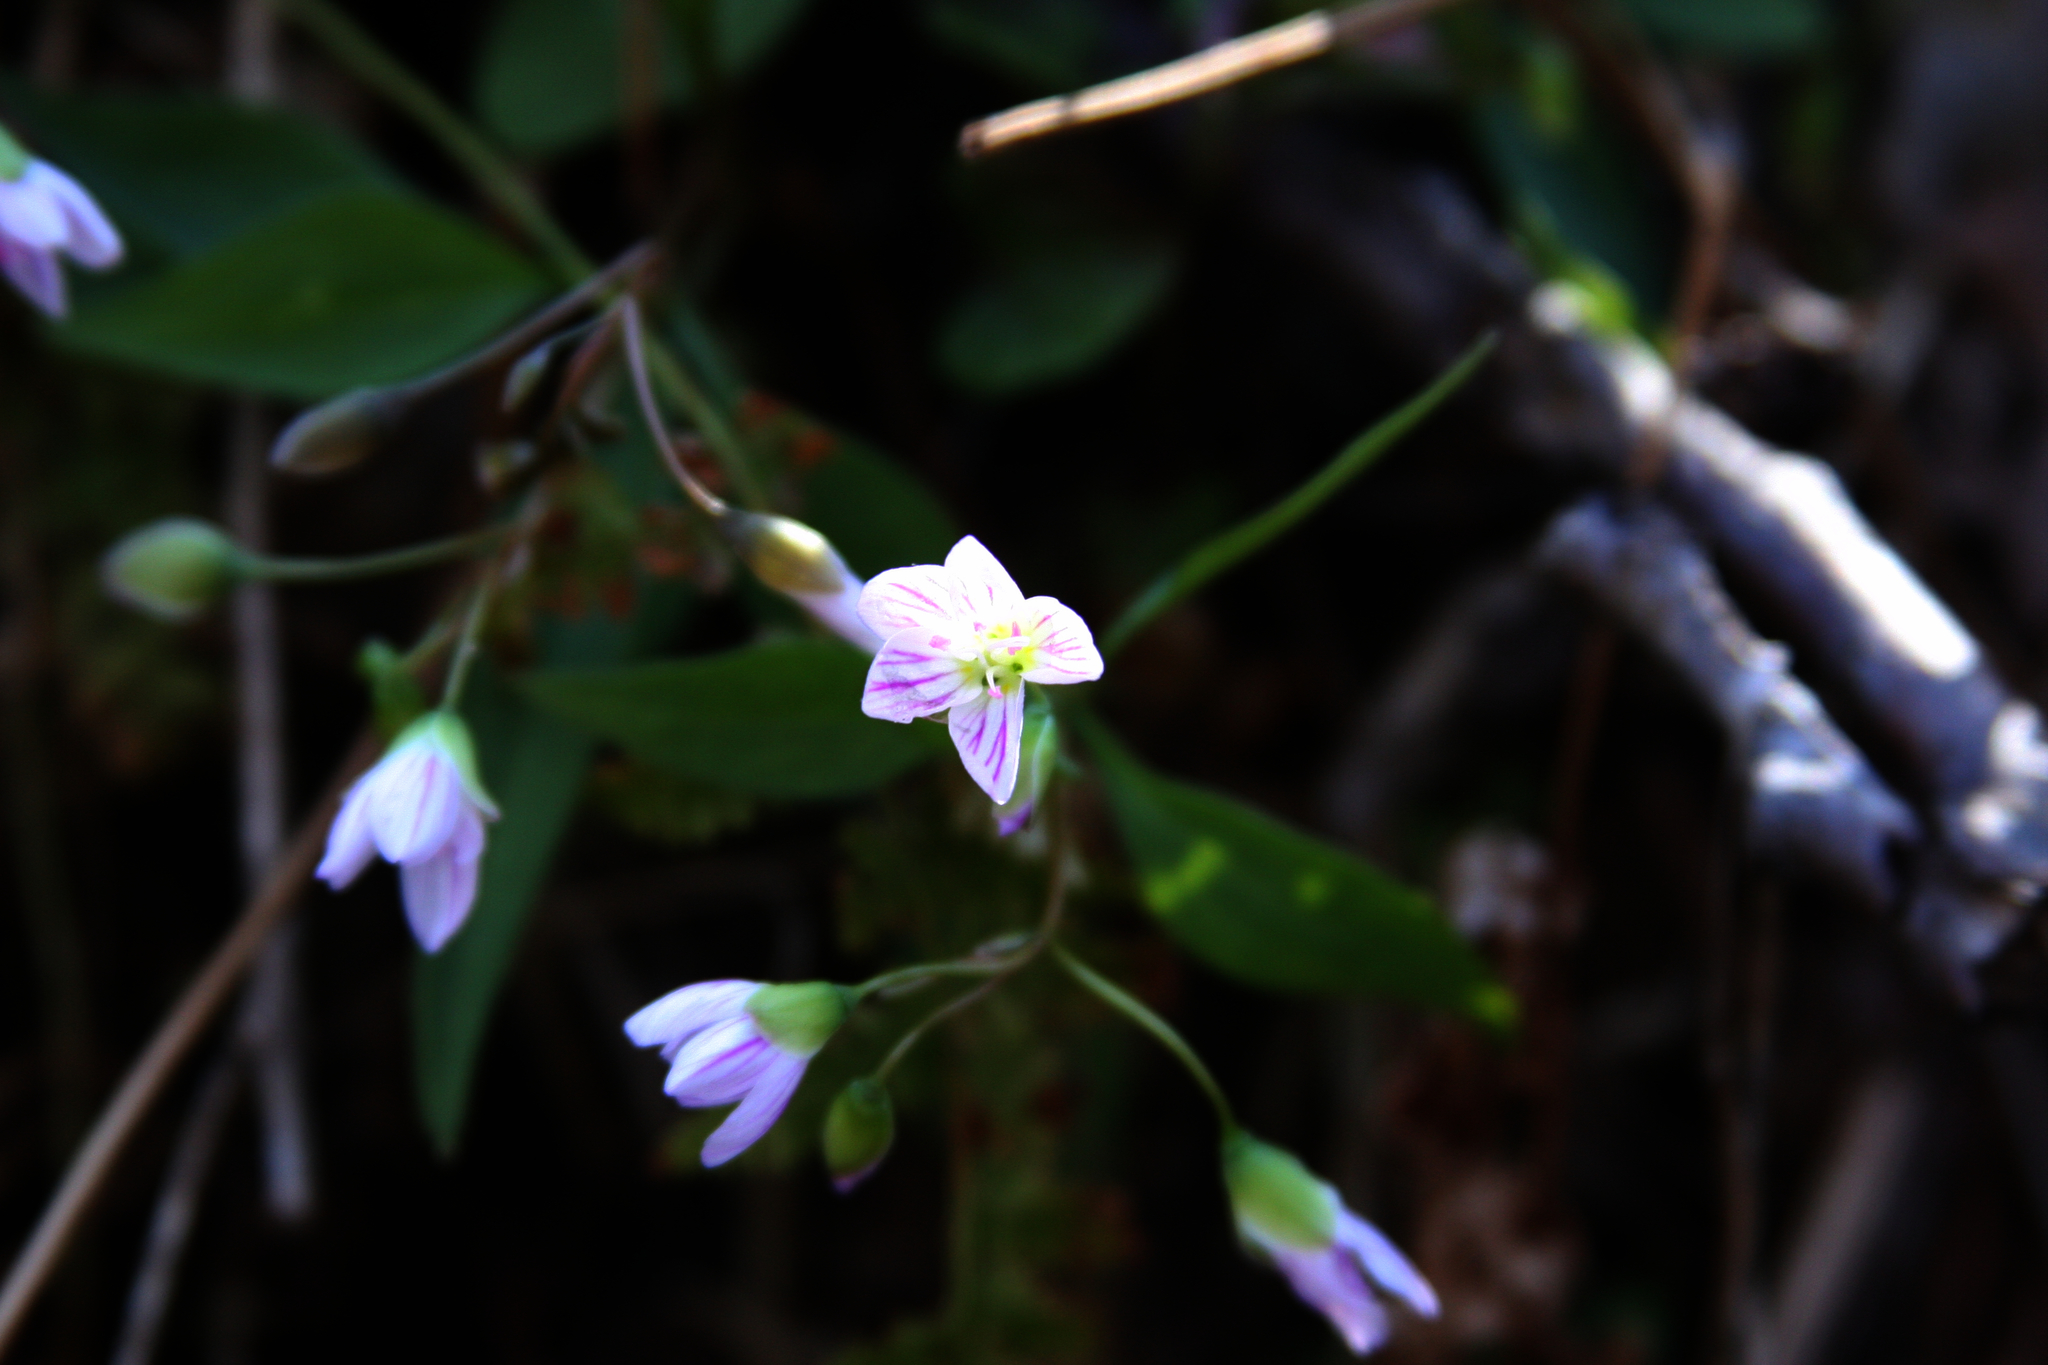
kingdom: Plantae
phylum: Tracheophyta
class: Magnoliopsida
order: Caryophyllales
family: Montiaceae
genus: Claytonia
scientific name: Claytonia caroliniana
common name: Carolina spring beauty
